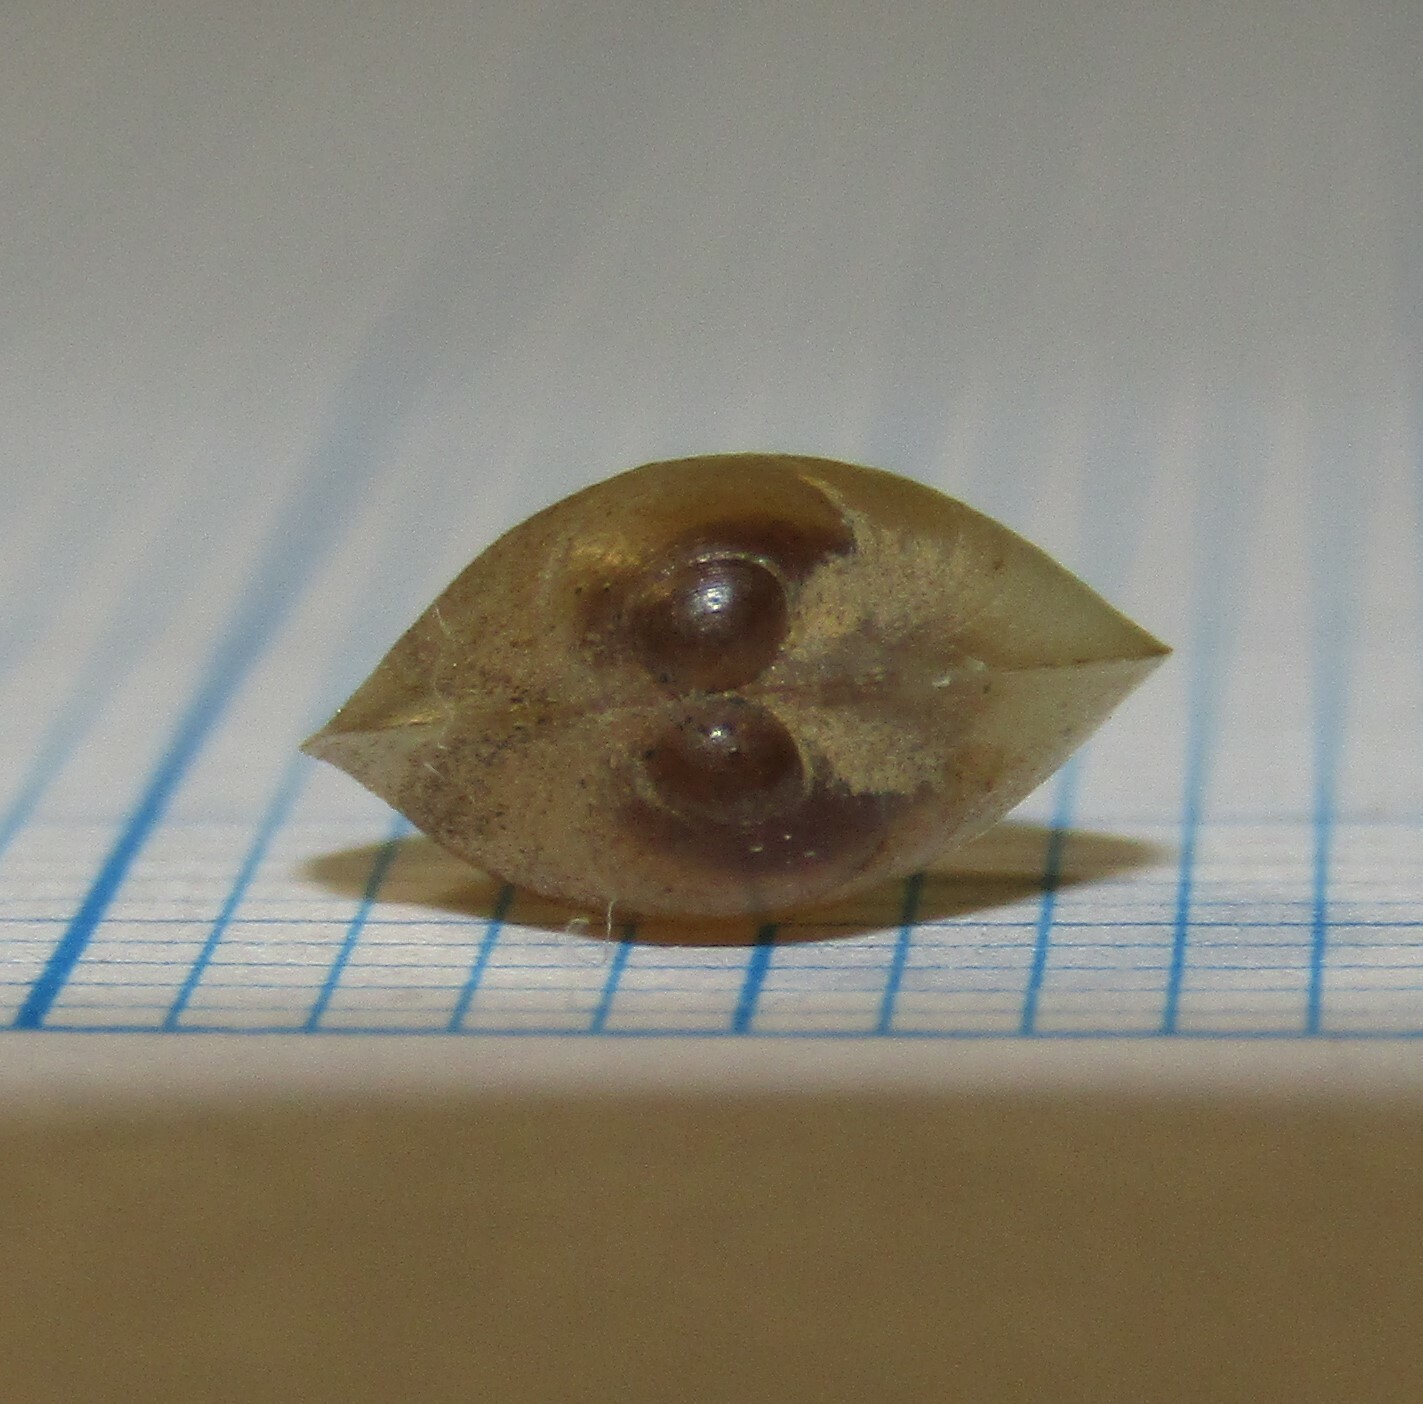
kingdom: Animalia
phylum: Mollusca
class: Bivalvia
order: Sphaeriida
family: Sphaeriidae
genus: Musculium
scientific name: Musculium lacustre
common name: Lake fingernailclam
